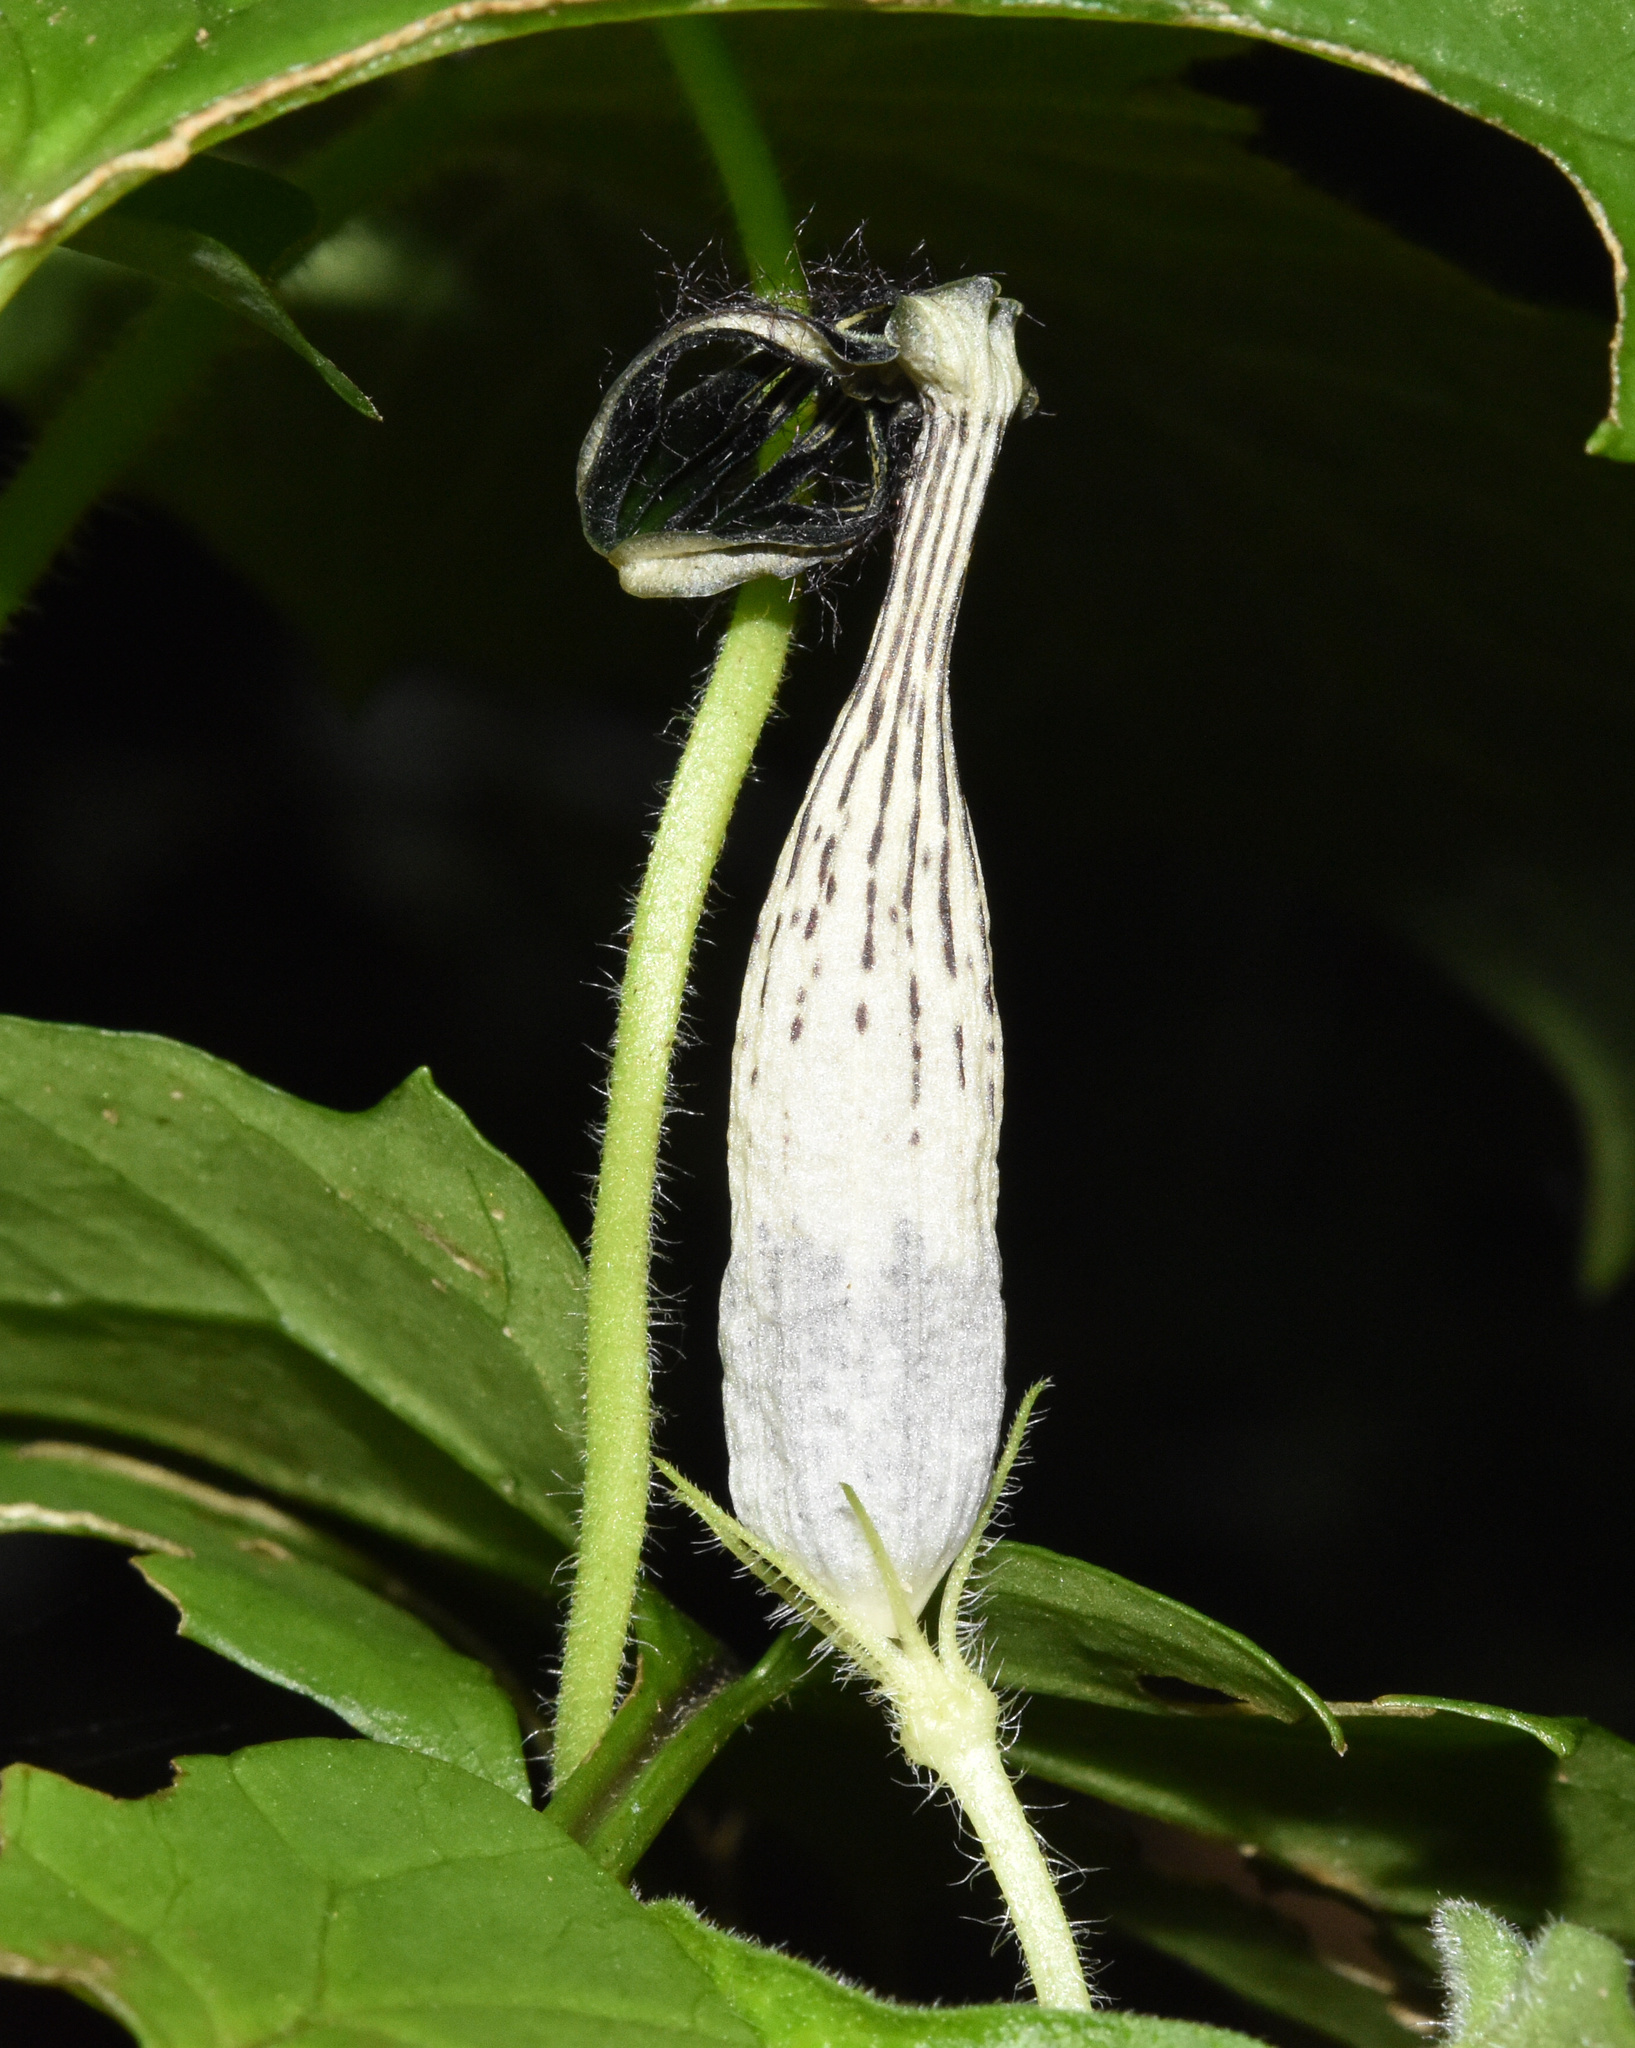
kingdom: Plantae
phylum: Tracheophyta
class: Magnoliopsida
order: Gentianales
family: Apocynaceae
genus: Ceropegia
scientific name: Ceropegia meyeri
